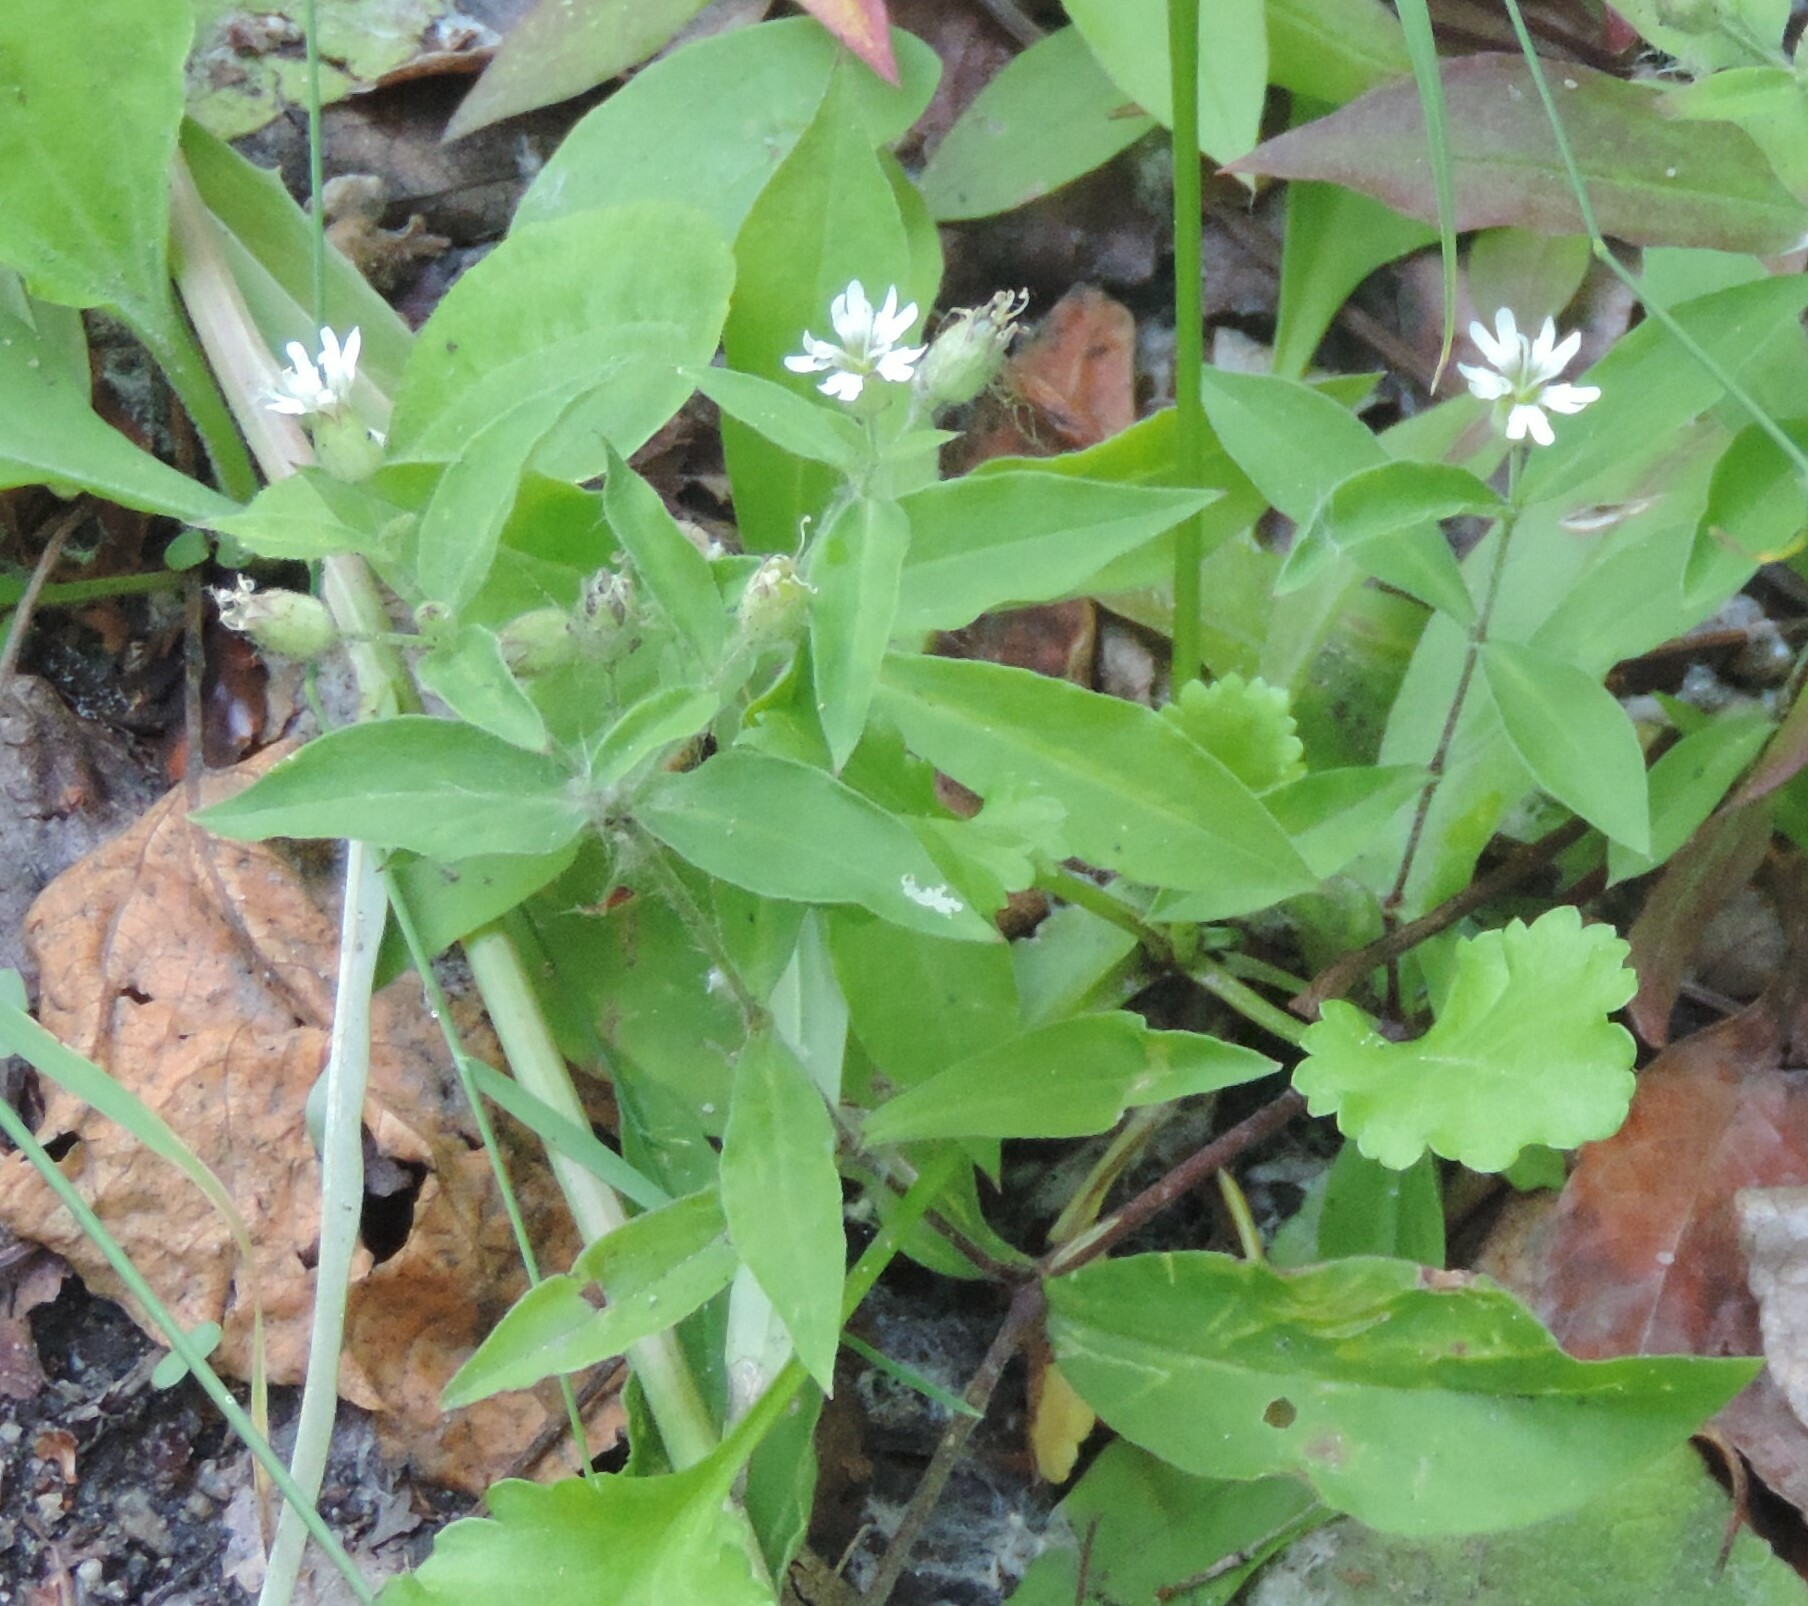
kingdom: Plantae
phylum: Tracheophyta
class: Magnoliopsida
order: Caryophyllales
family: Caryophyllaceae
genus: Silene
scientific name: Silene menziesii
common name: Menzies's catchfly
